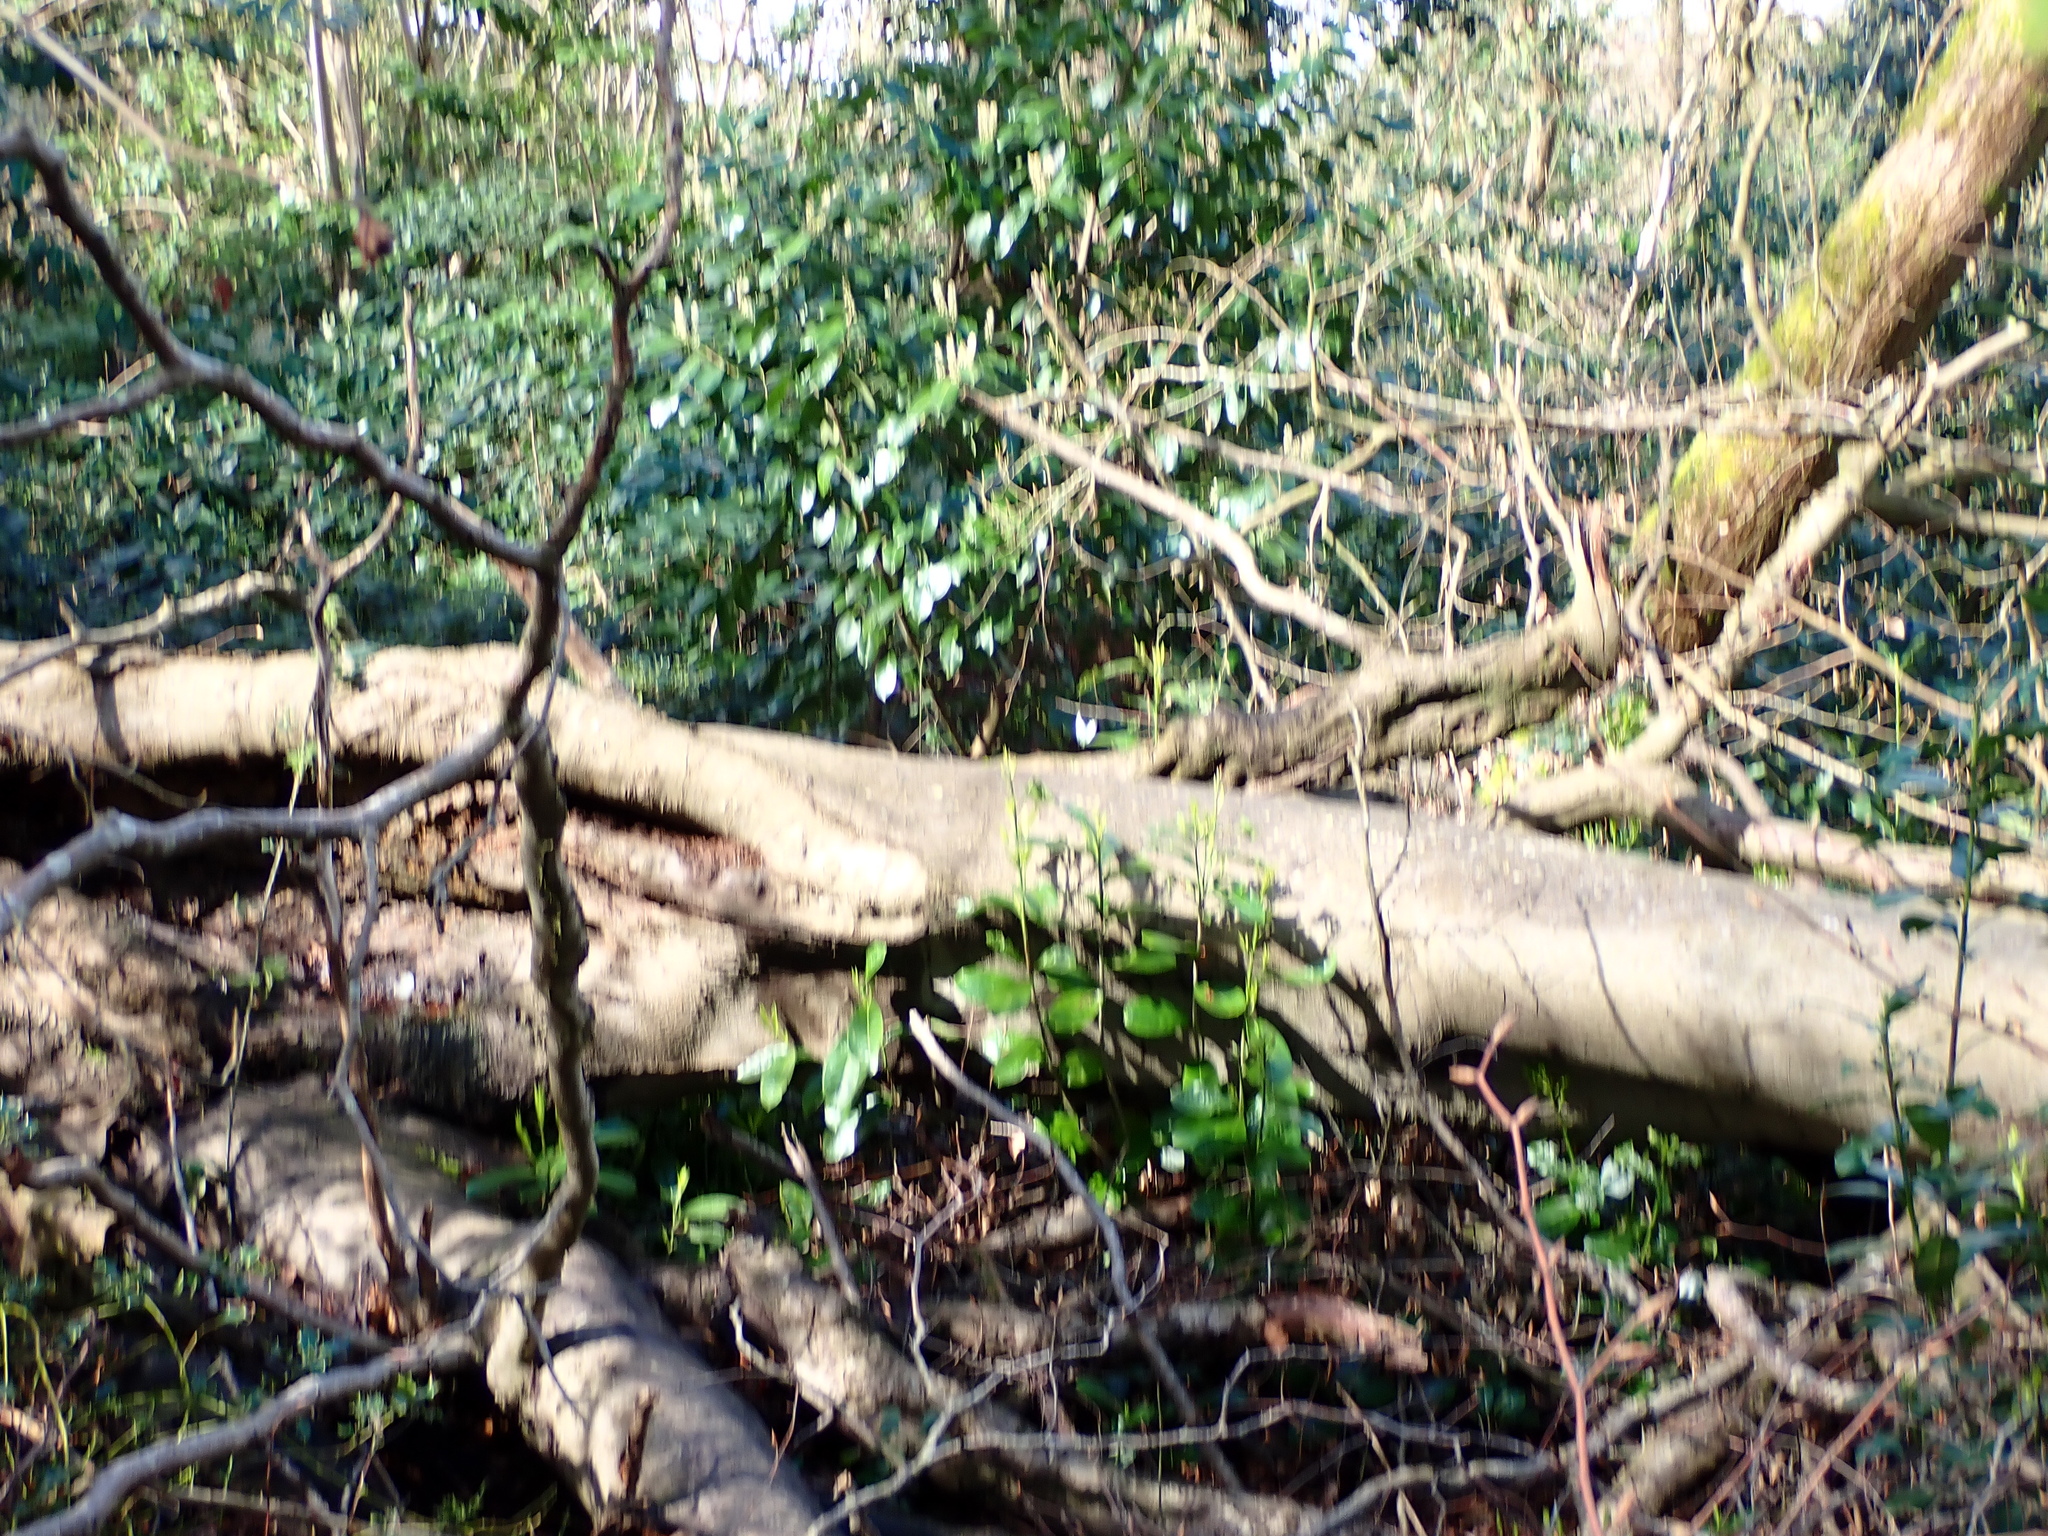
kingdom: Plantae
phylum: Tracheophyta
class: Magnoliopsida
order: Fagales
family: Fagaceae
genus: Fagus
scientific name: Fagus sylvatica
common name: Beech
